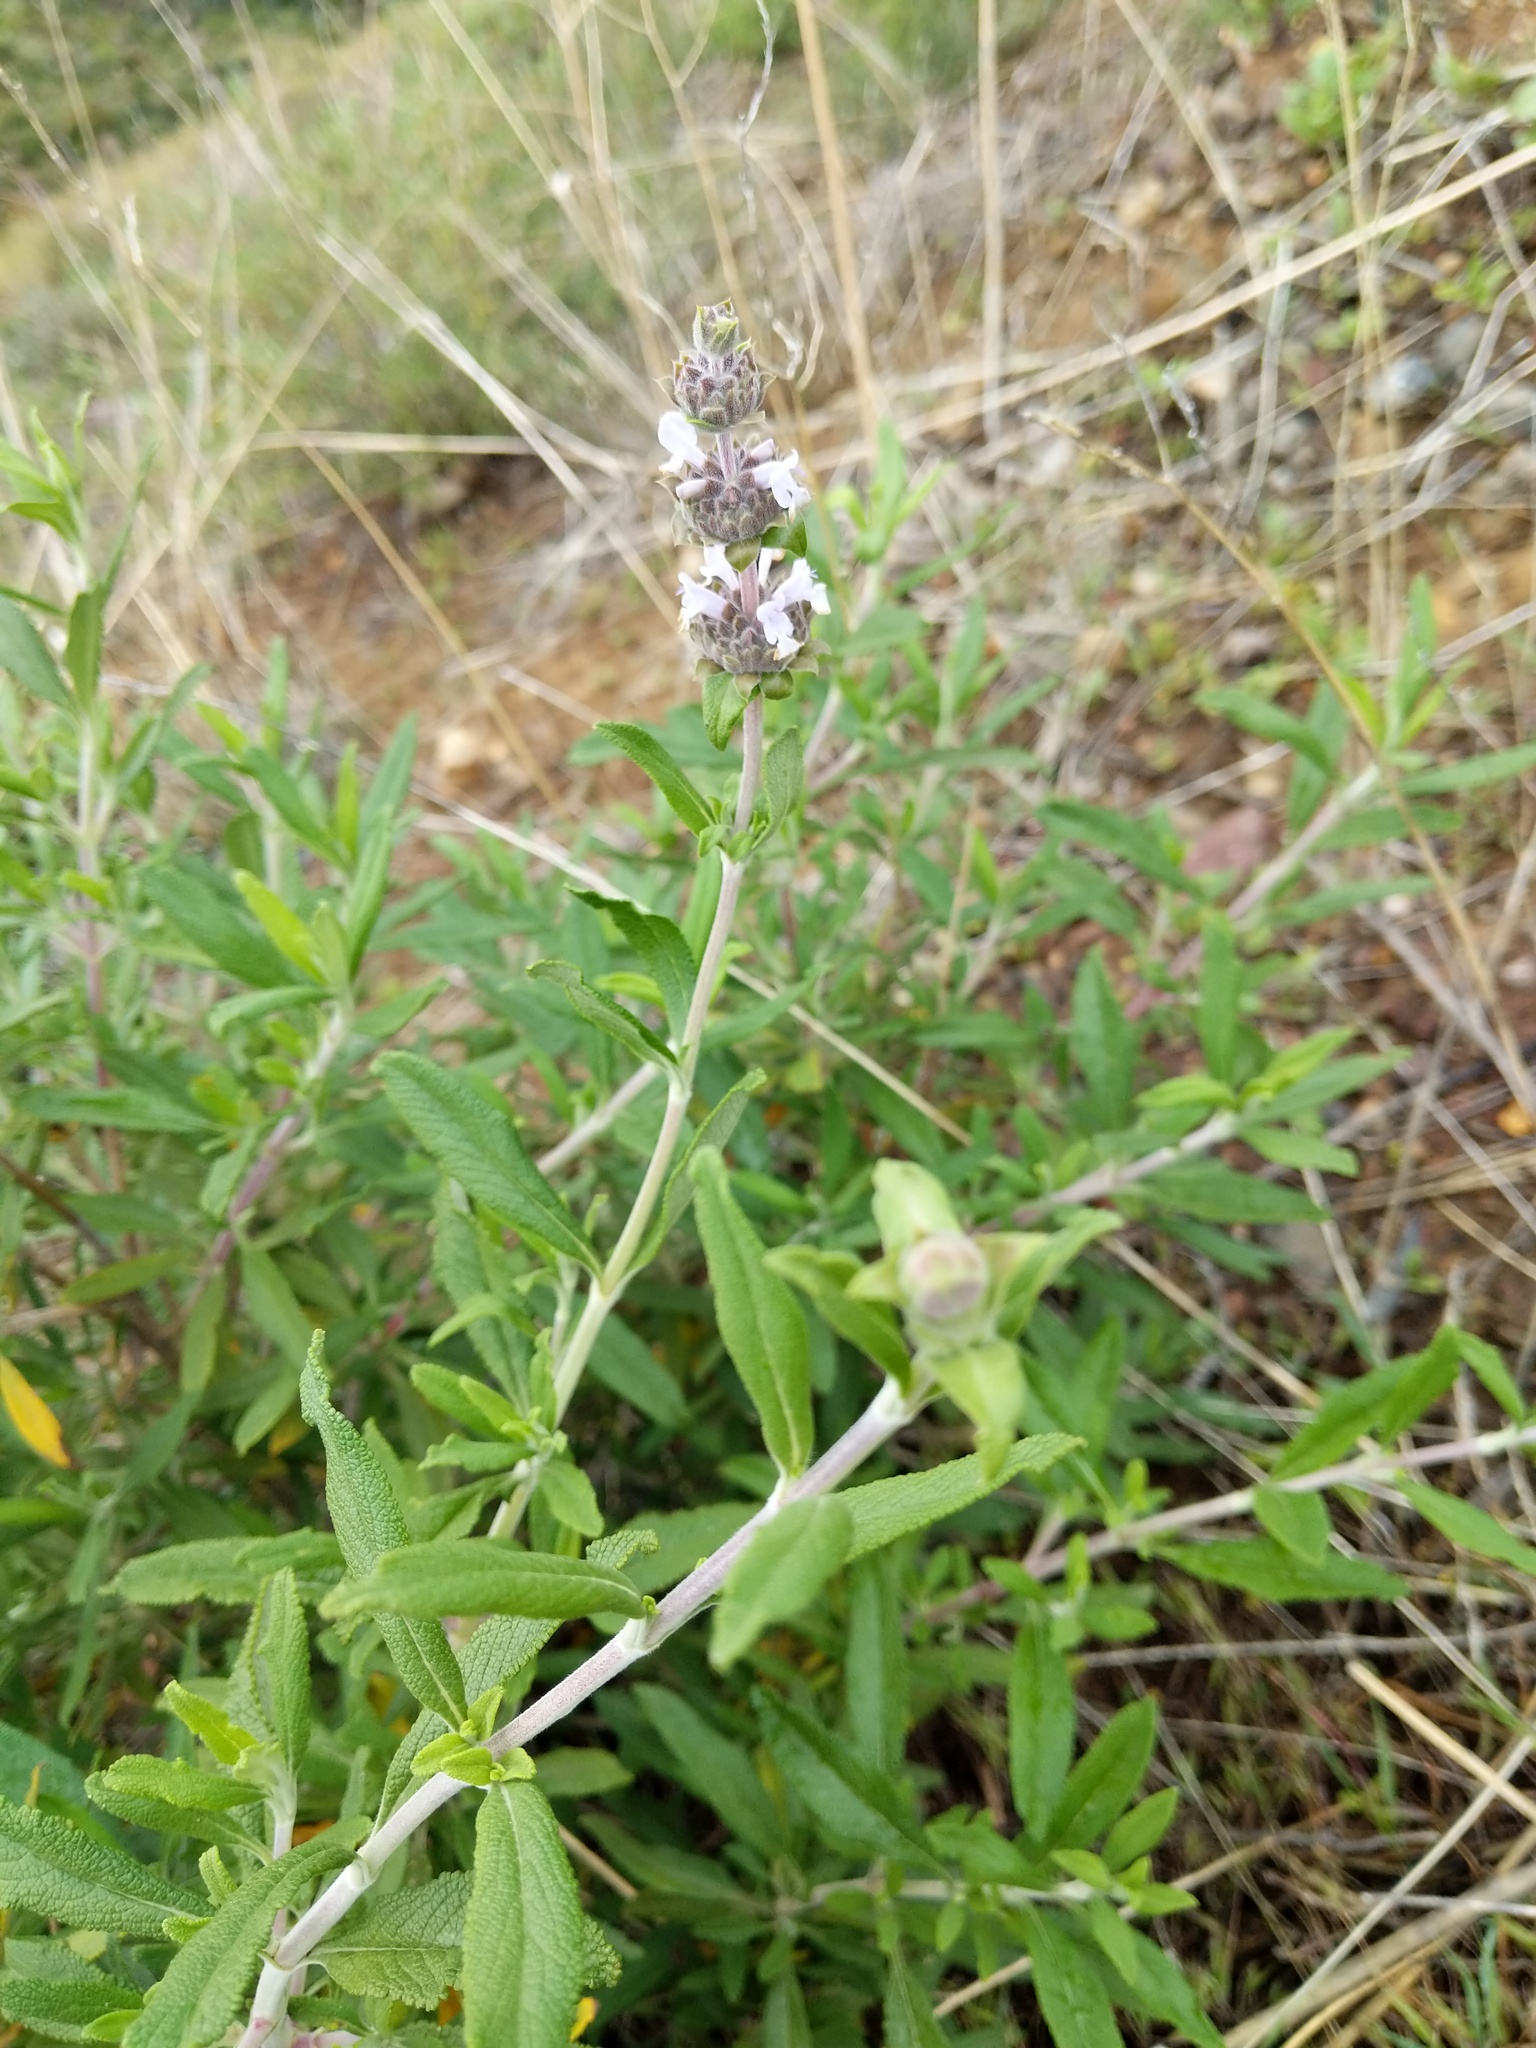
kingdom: Plantae
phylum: Tracheophyta
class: Magnoliopsida
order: Lamiales
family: Lamiaceae
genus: Salvia
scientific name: Salvia mellifera
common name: Black sage
